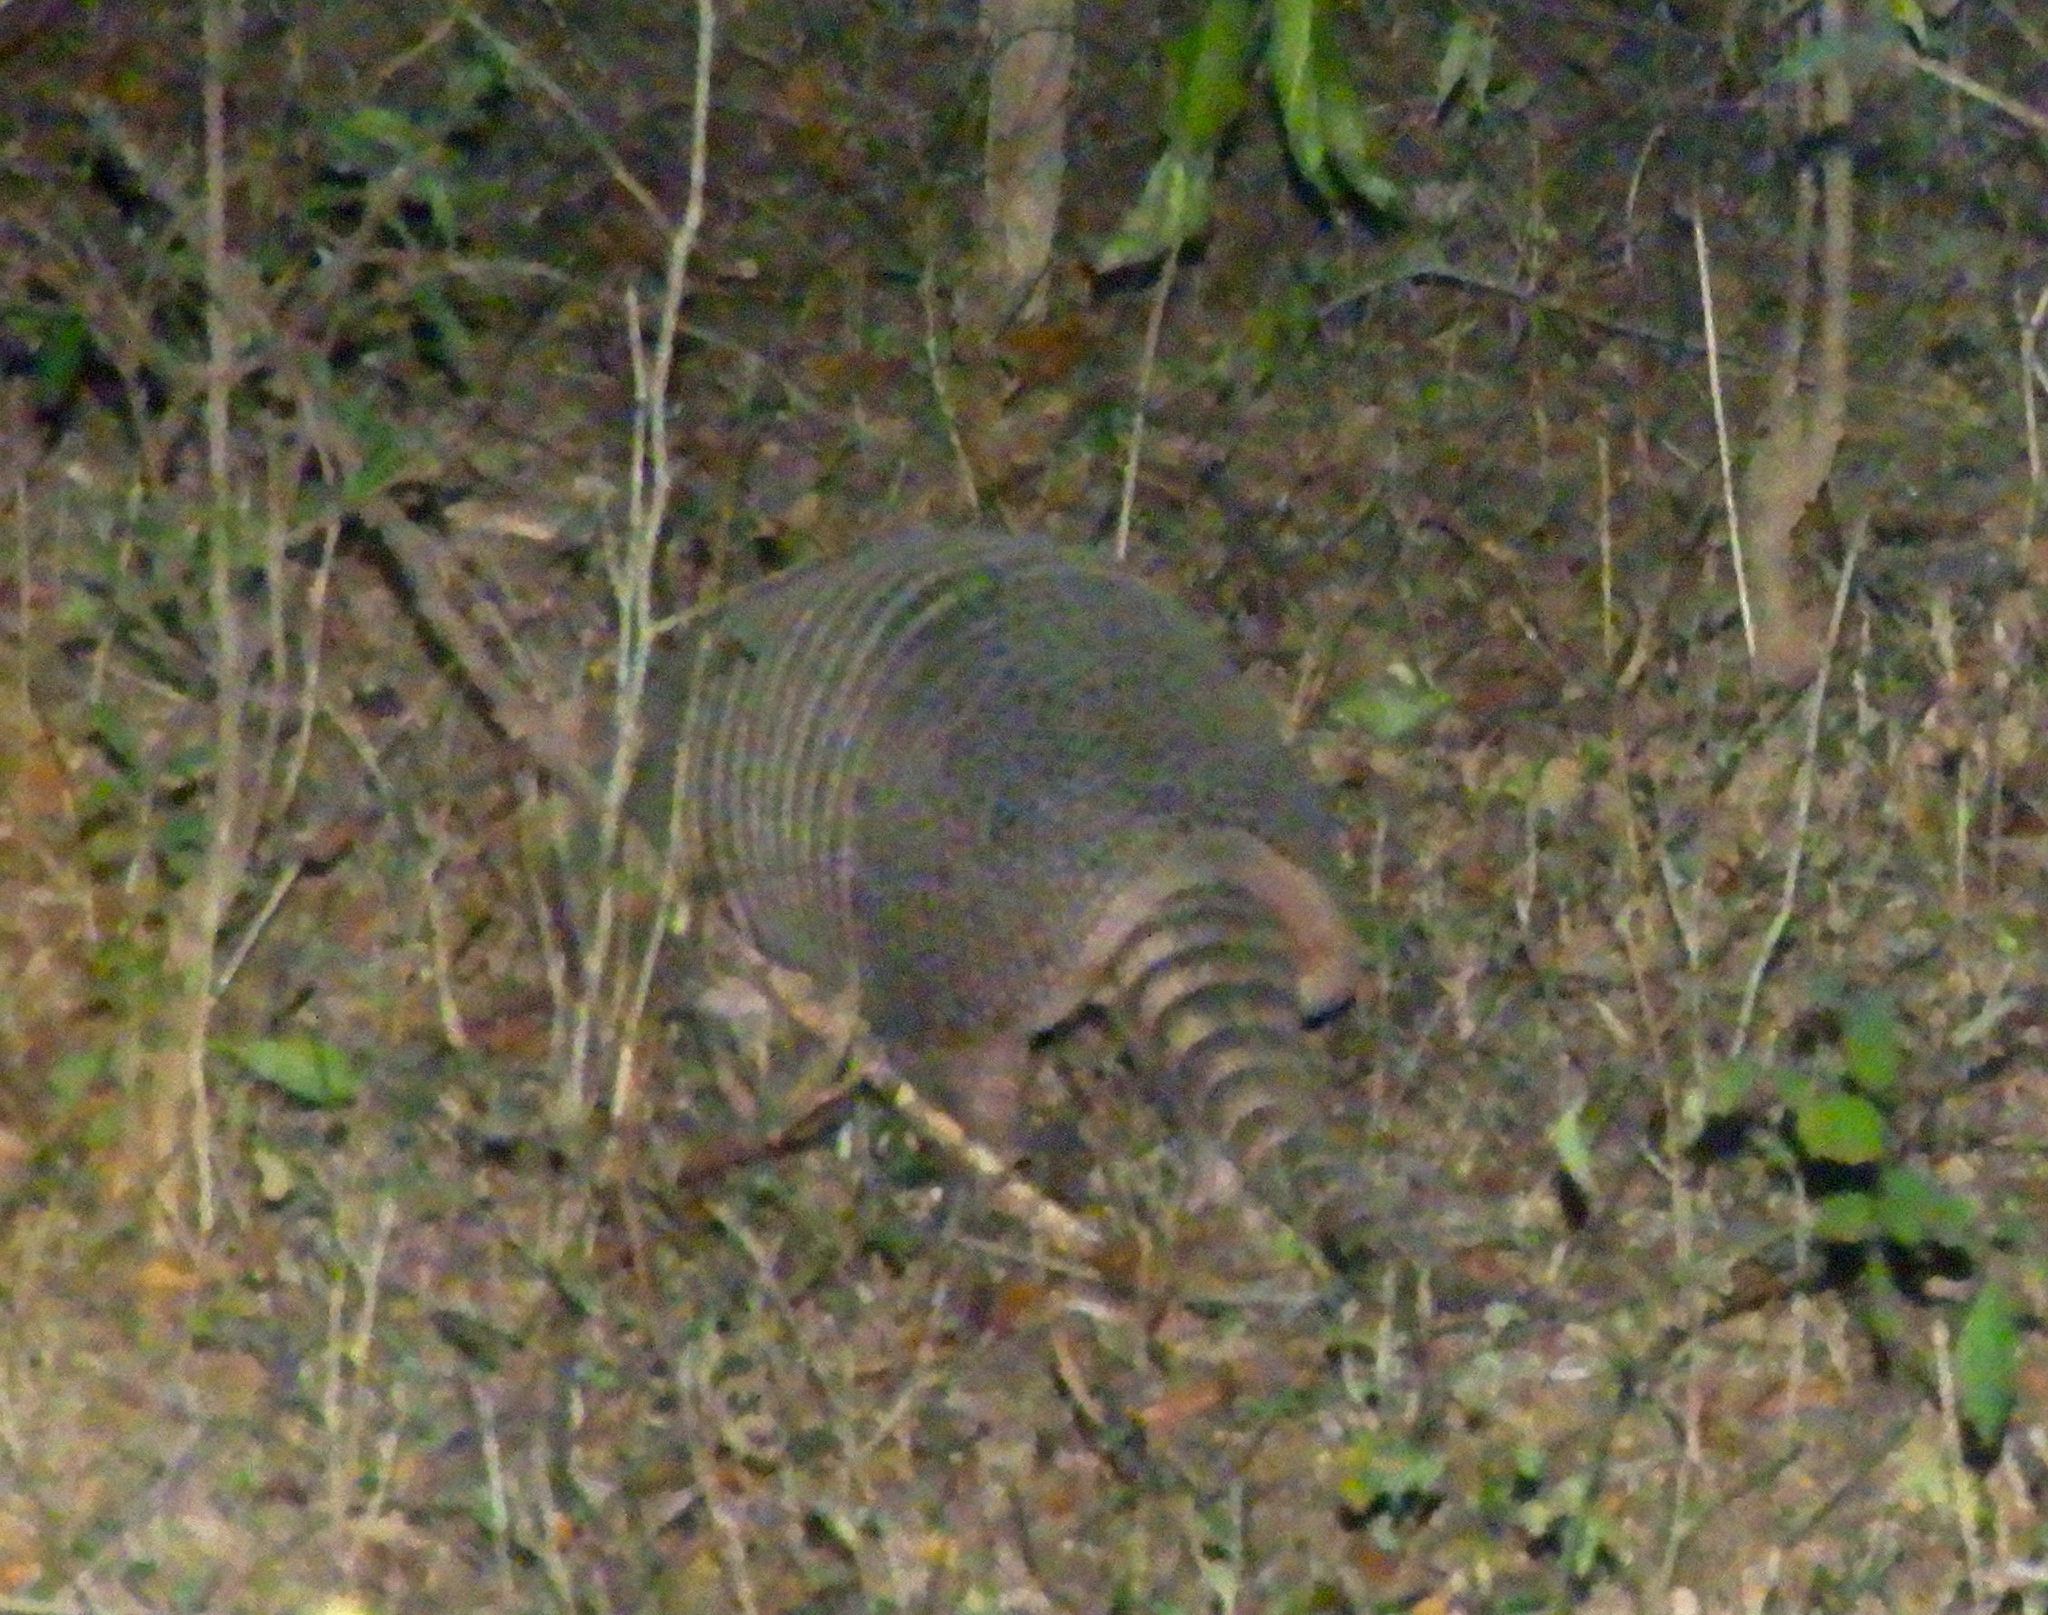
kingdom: Animalia
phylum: Chordata
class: Mammalia
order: Cingulata
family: Dasypodidae
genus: Dasypus
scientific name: Dasypus novemcinctus
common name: Nine-banded armadillo
